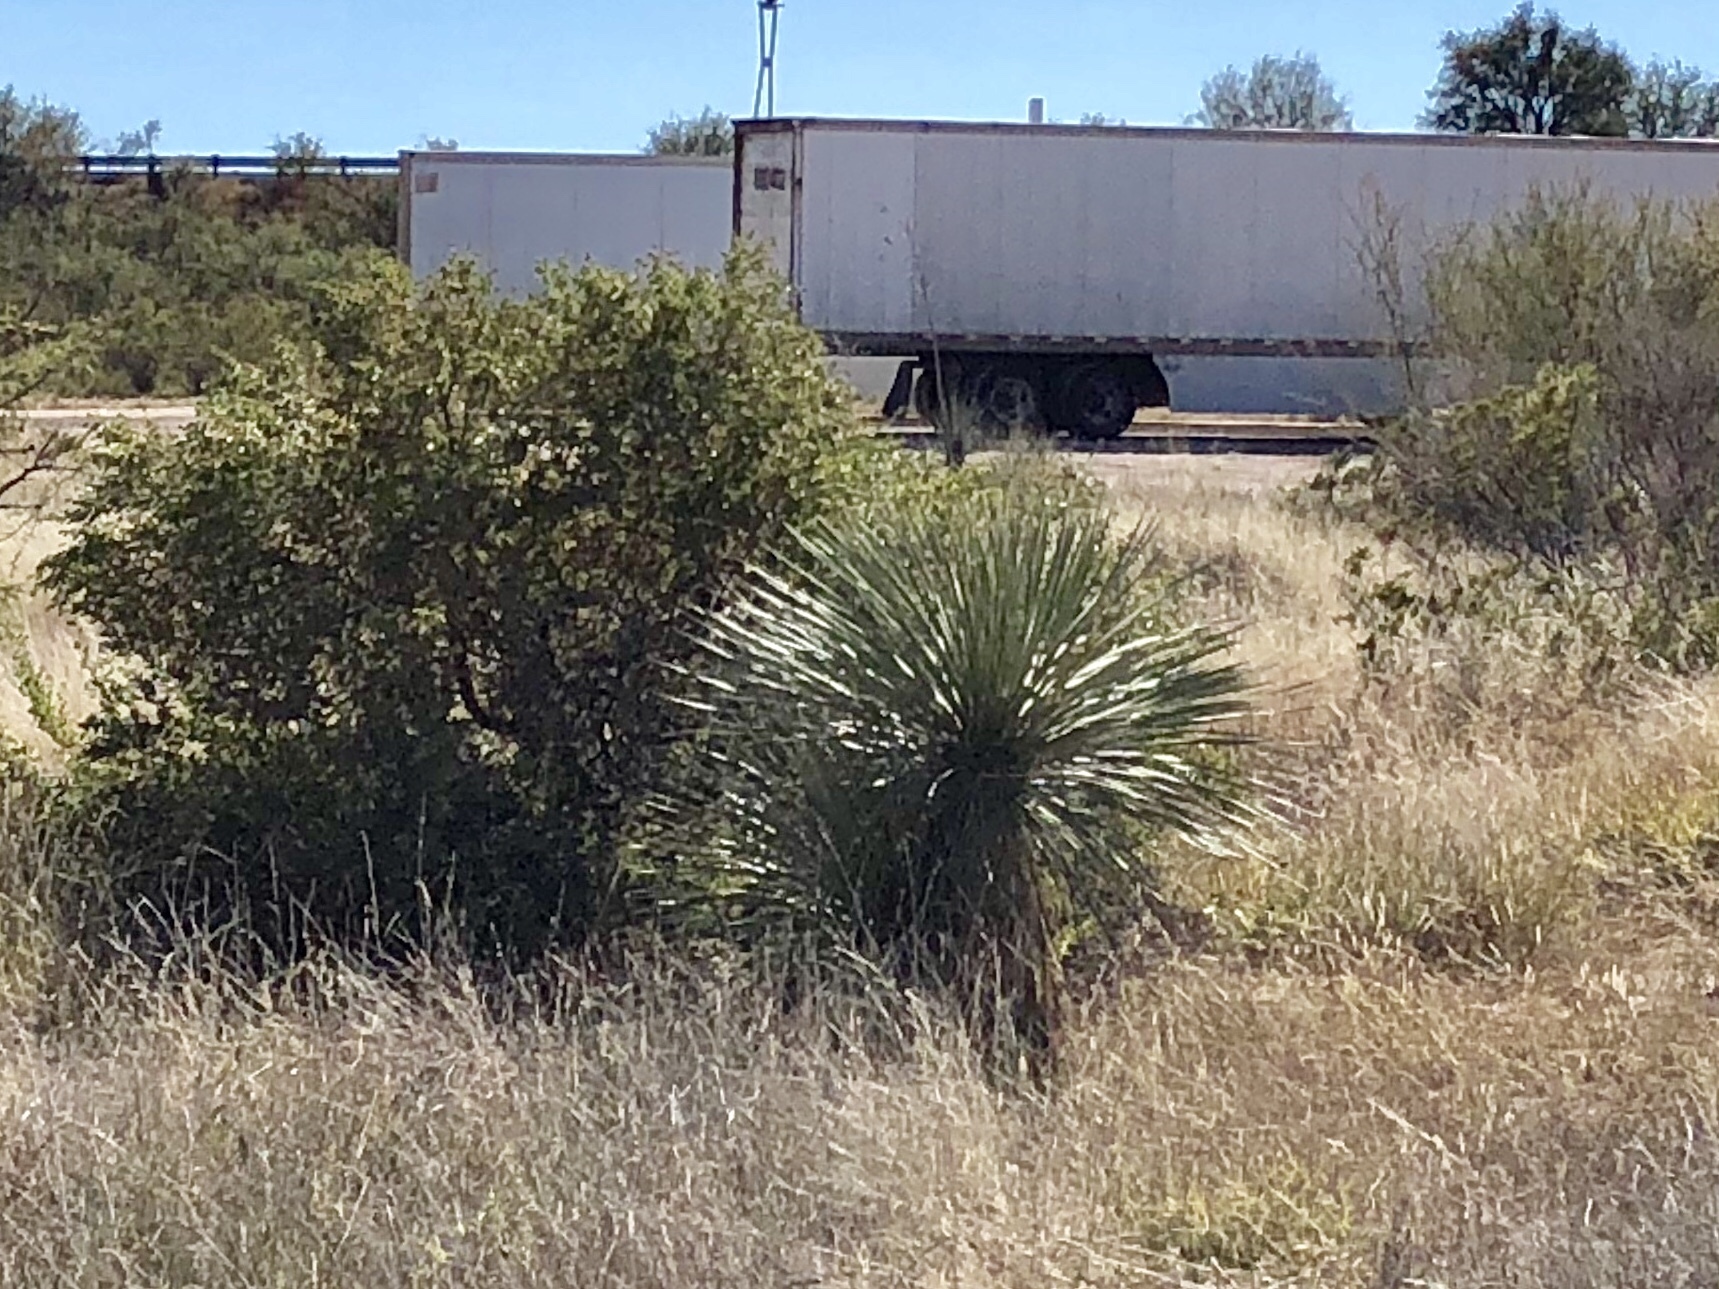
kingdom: Plantae
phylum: Tracheophyta
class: Liliopsida
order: Asparagales
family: Asparagaceae
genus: Yucca
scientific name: Yucca elata
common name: Palmella
